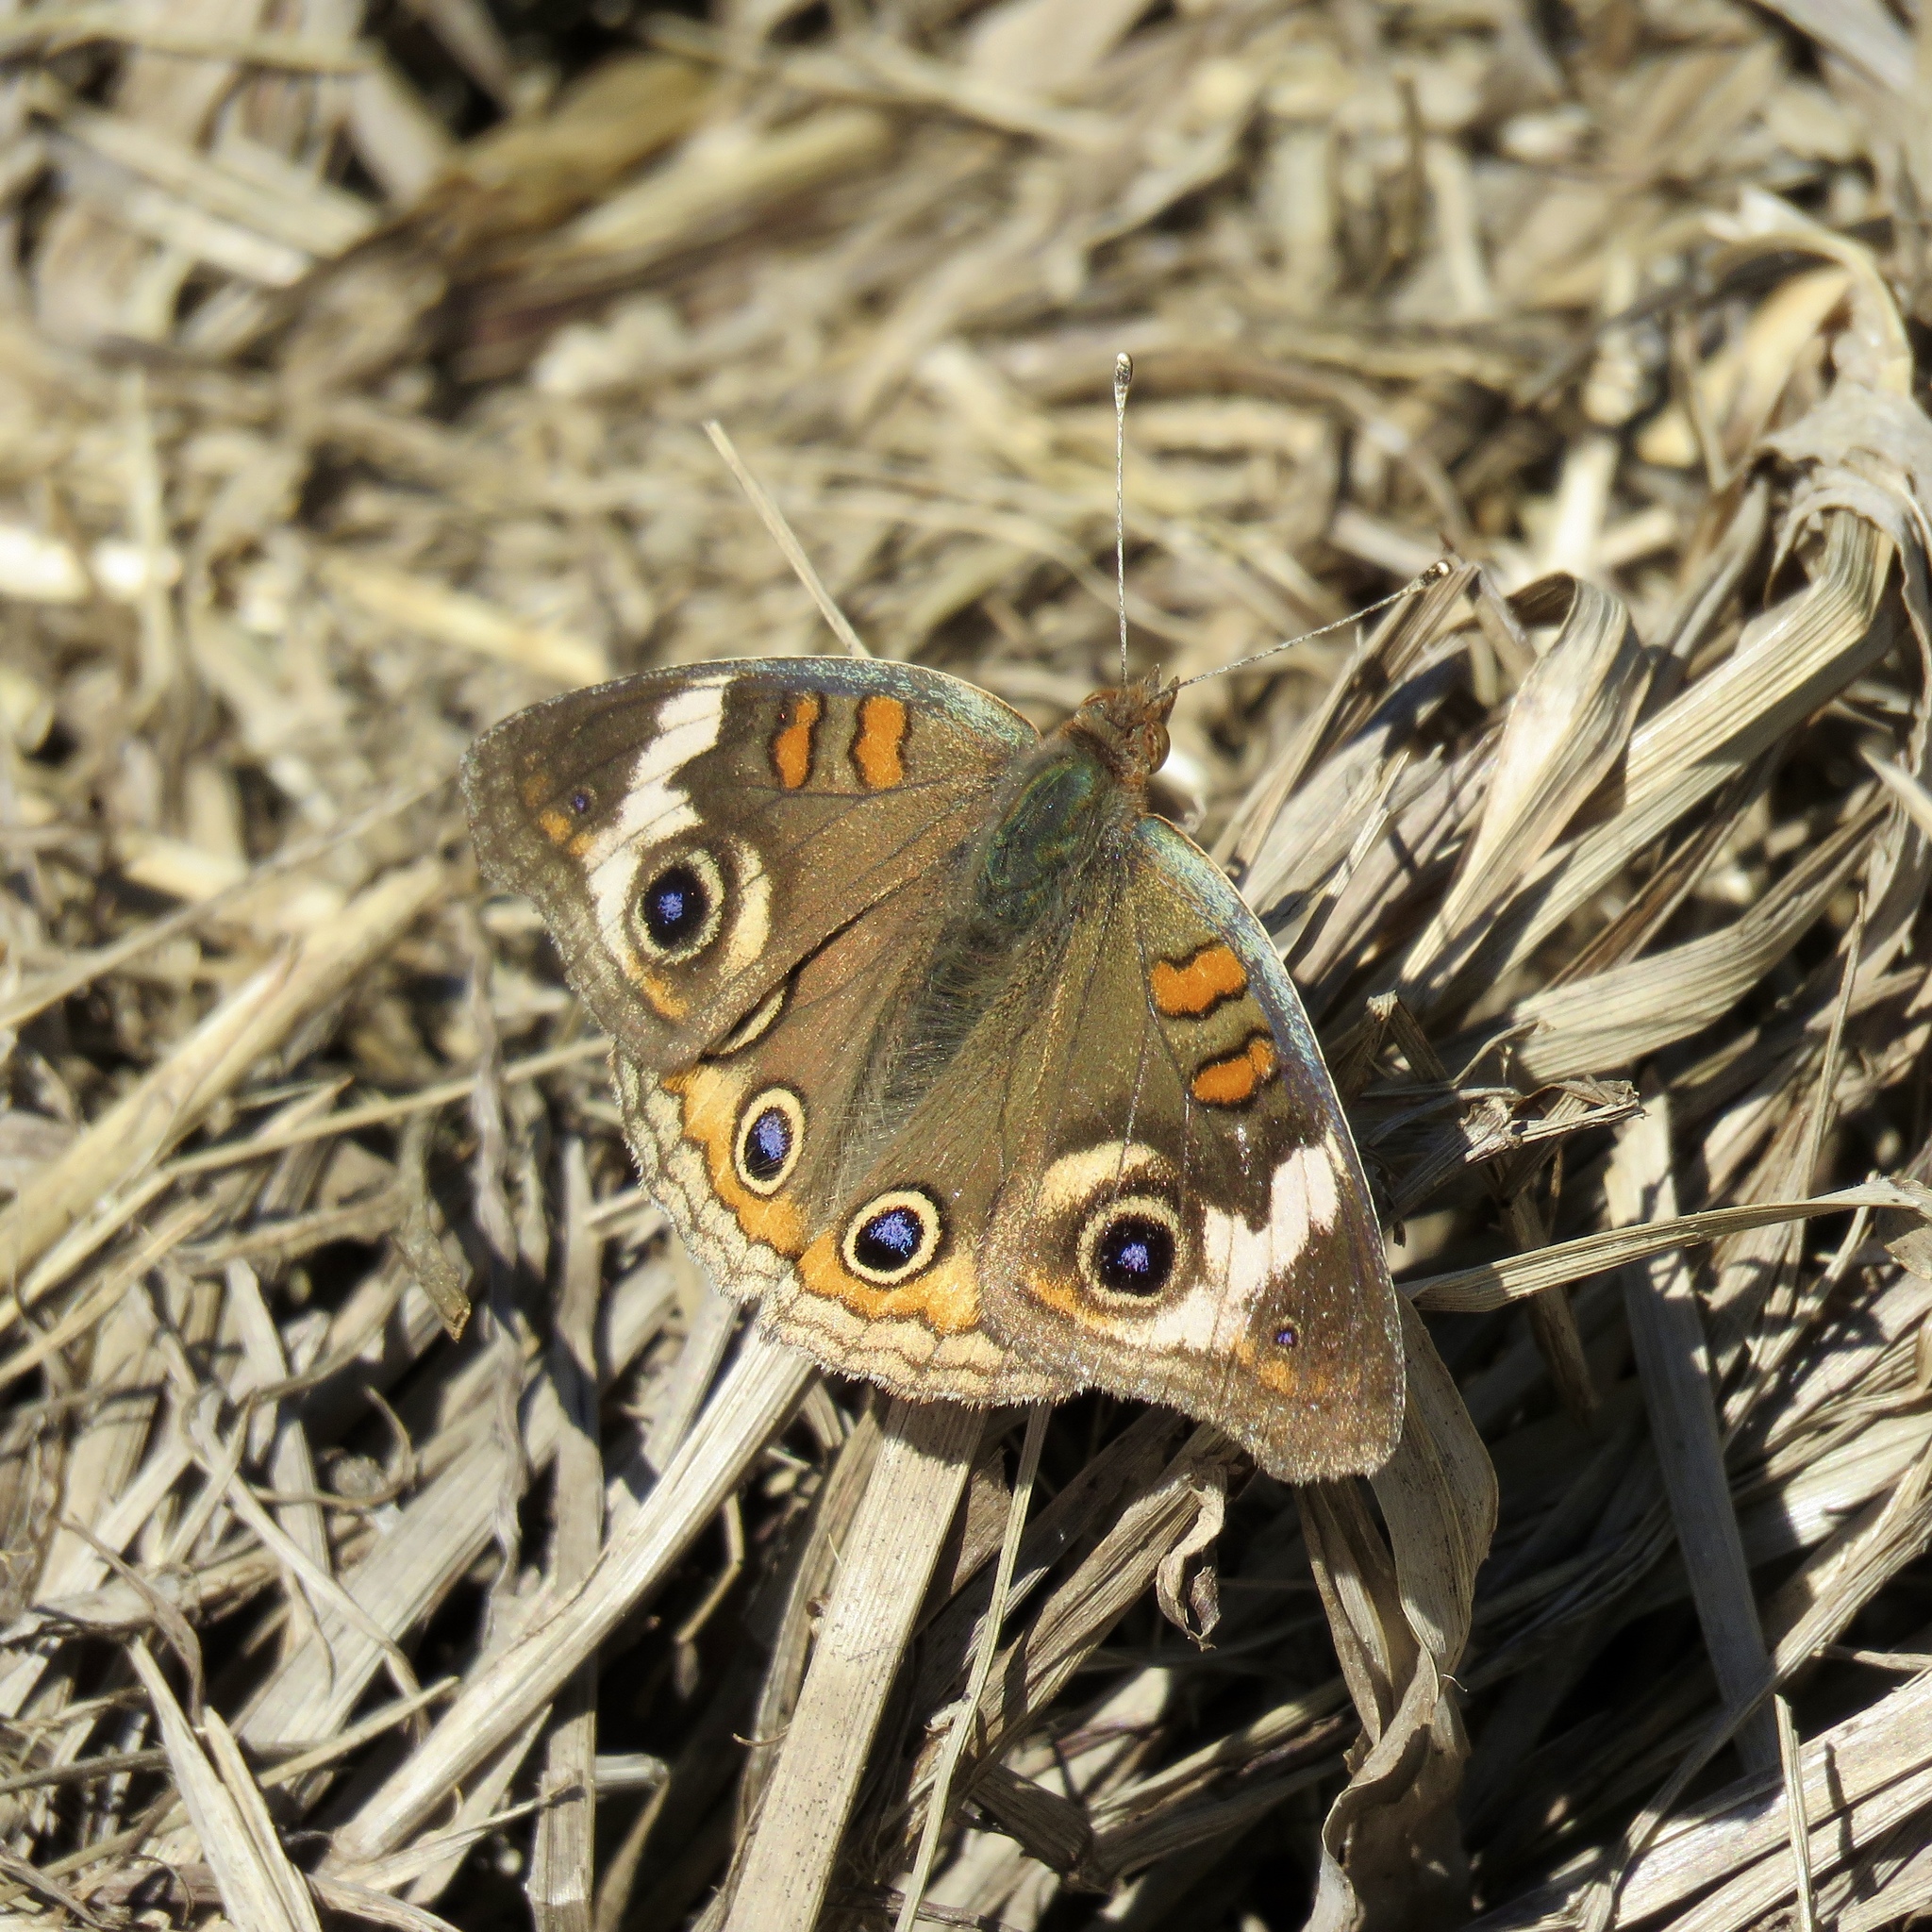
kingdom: Animalia
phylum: Arthropoda
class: Insecta
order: Lepidoptera
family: Nymphalidae
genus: Junonia
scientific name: Junonia coenia
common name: Common buckeye
